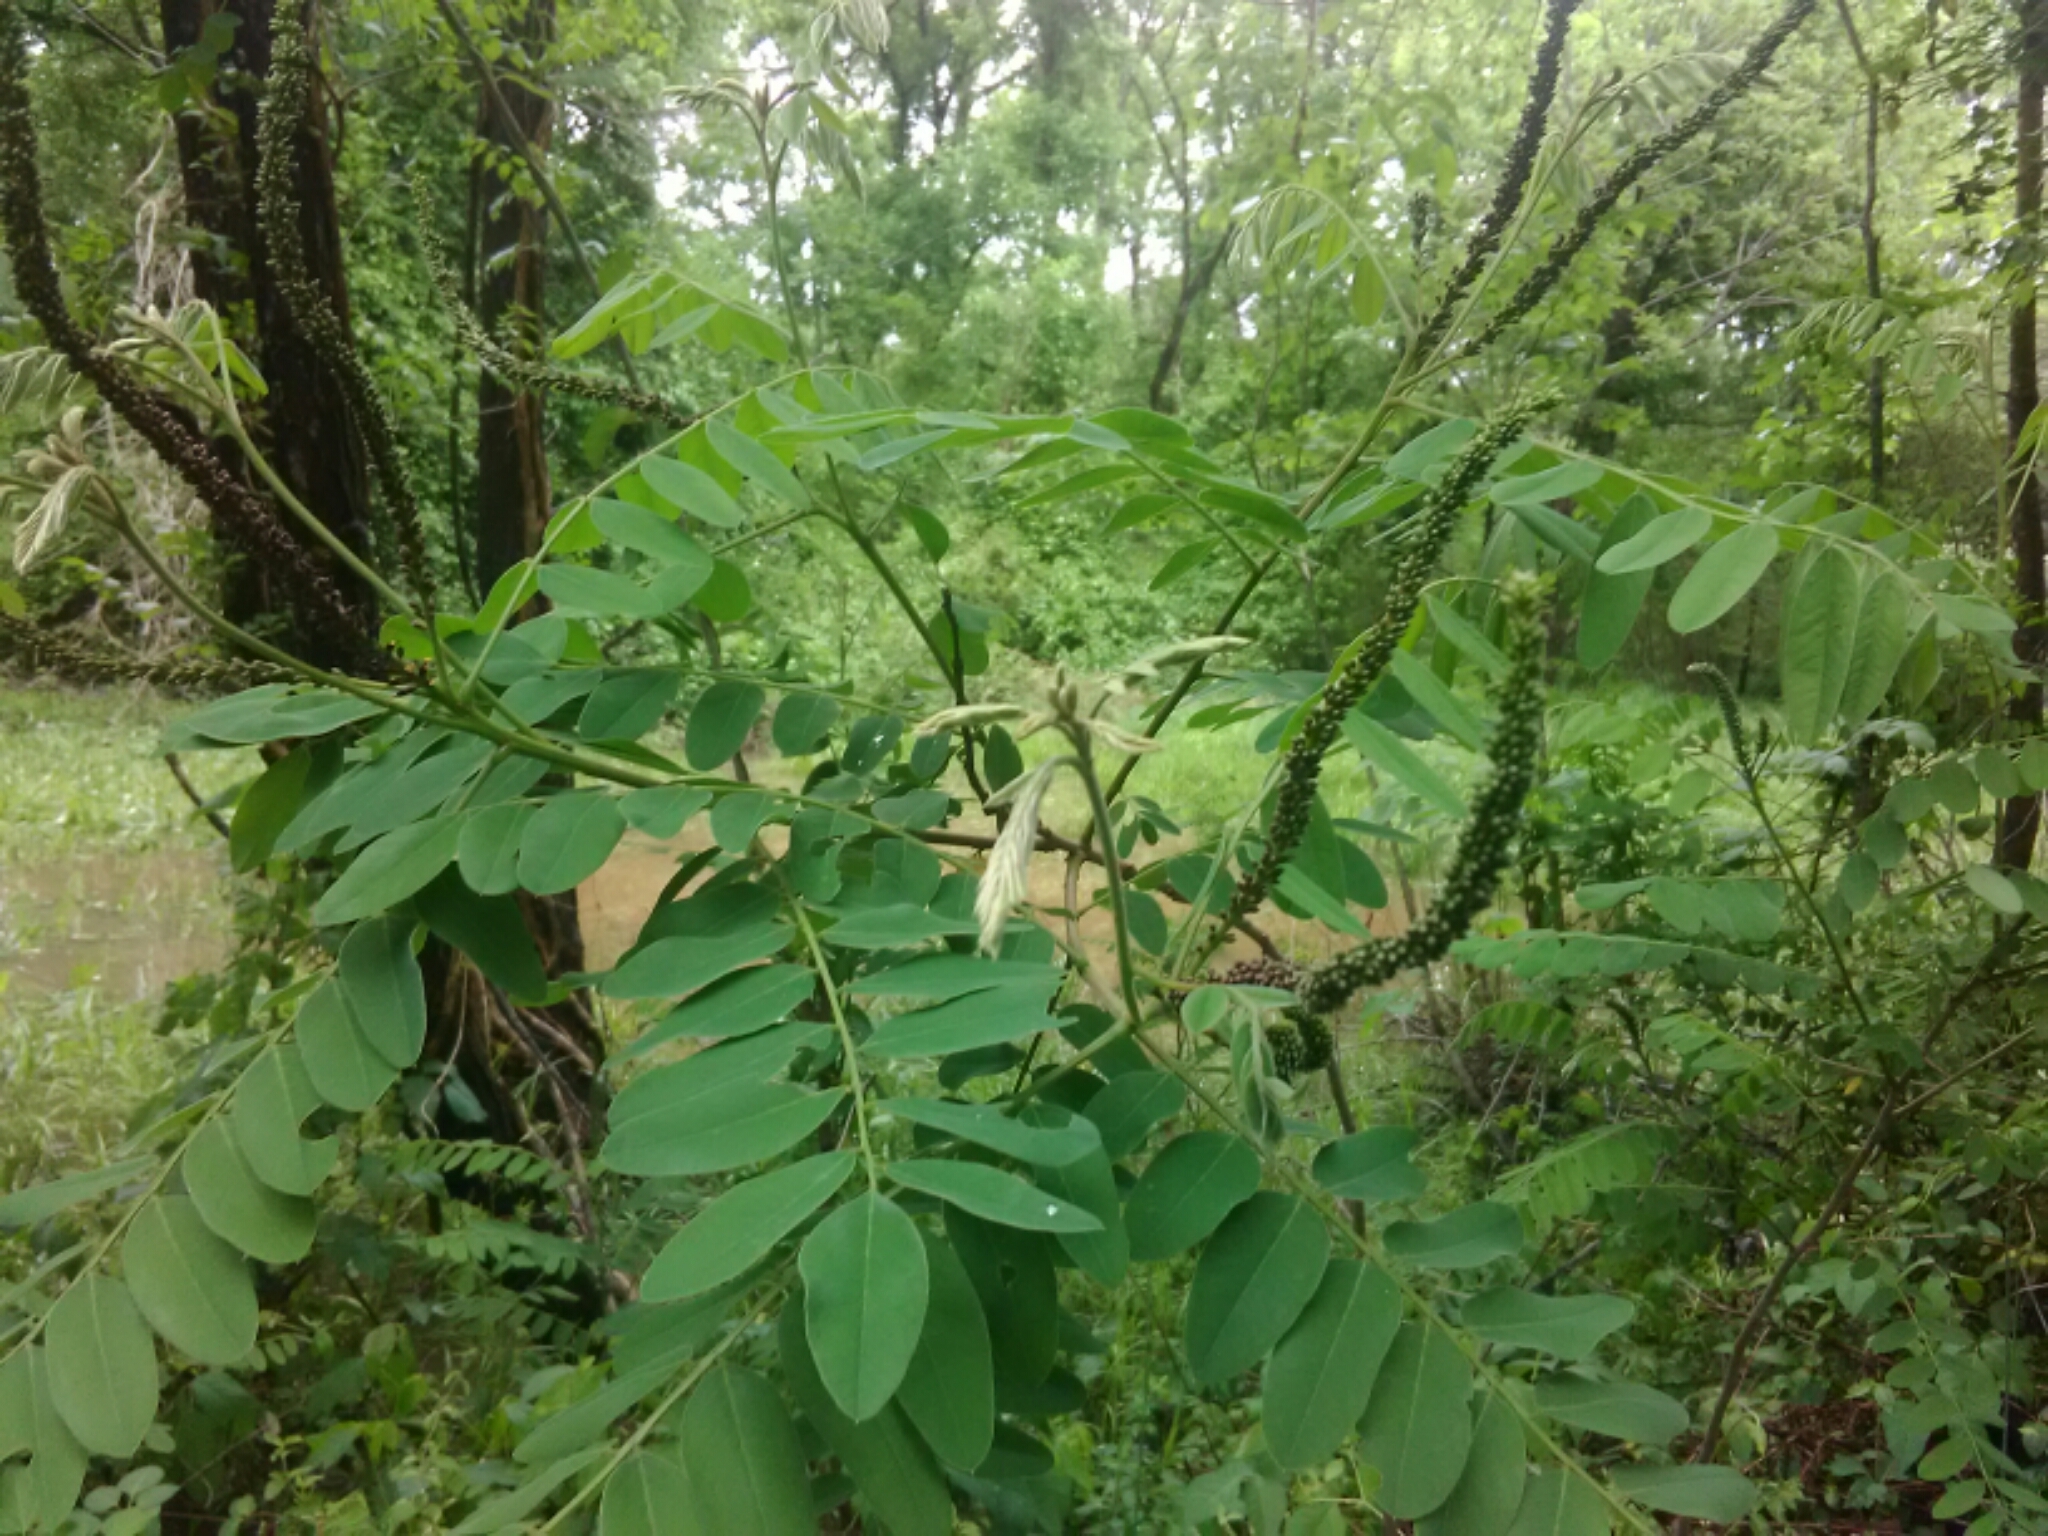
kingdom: Plantae
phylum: Tracheophyta
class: Magnoliopsida
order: Fabales
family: Fabaceae
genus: Amorpha
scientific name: Amorpha fruticosa
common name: False indigo
